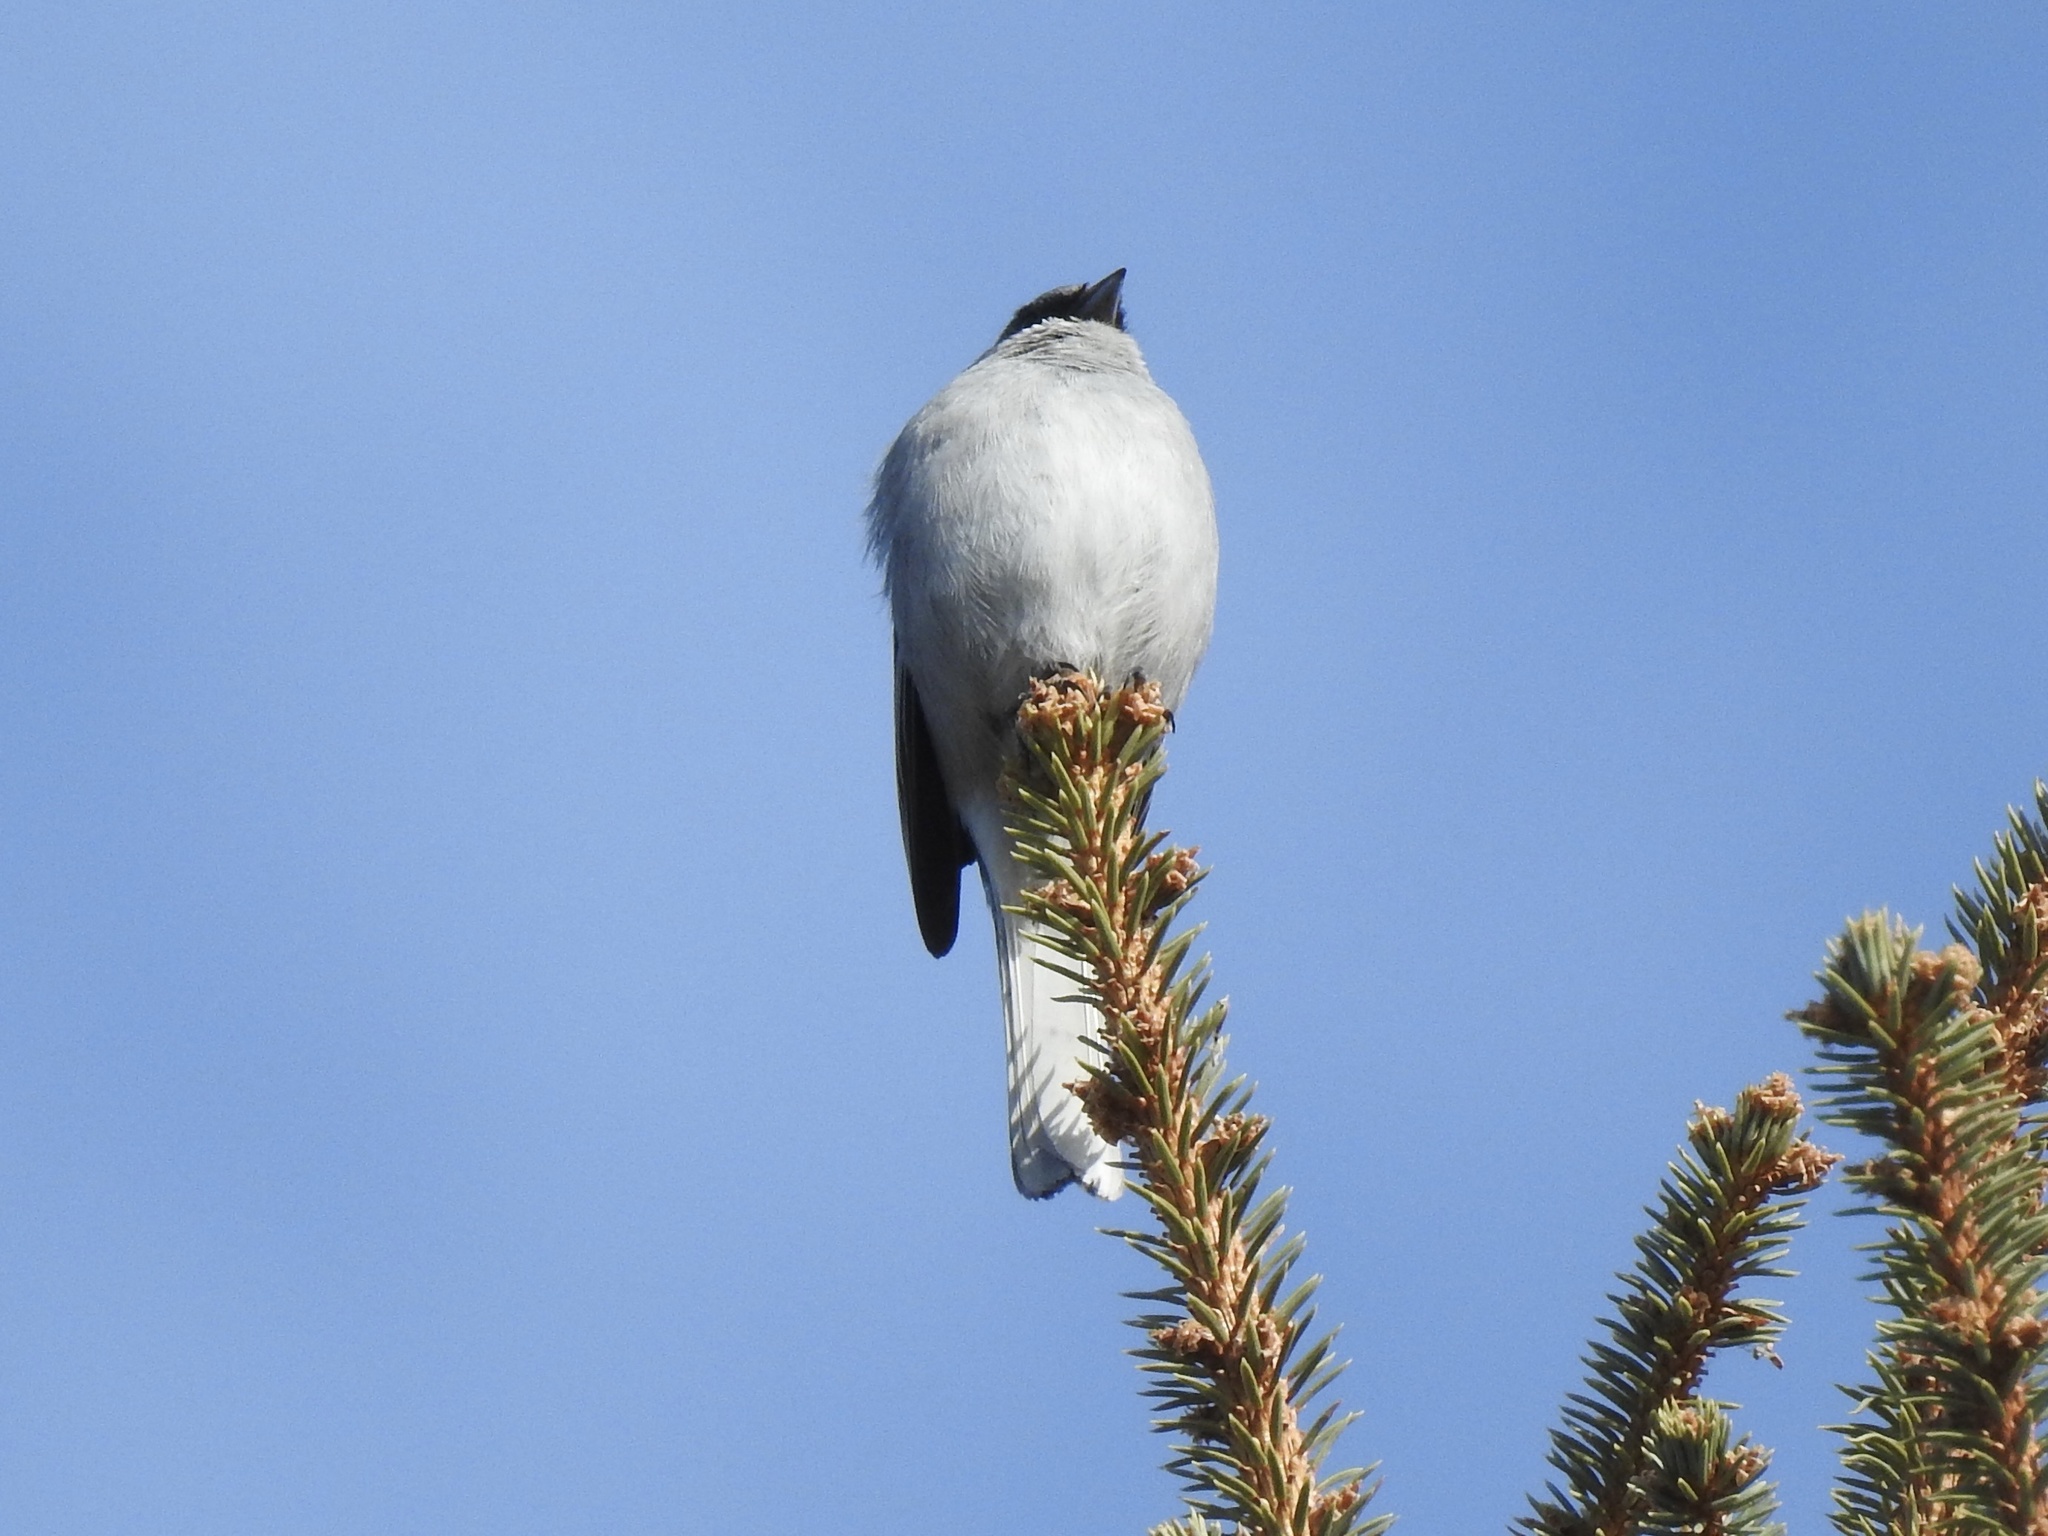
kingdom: Animalia
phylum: Chordata
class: Aves
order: Passeriformes
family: Passerellidae
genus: Junco
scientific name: Junco hyemalis
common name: Dark-eyed junco
